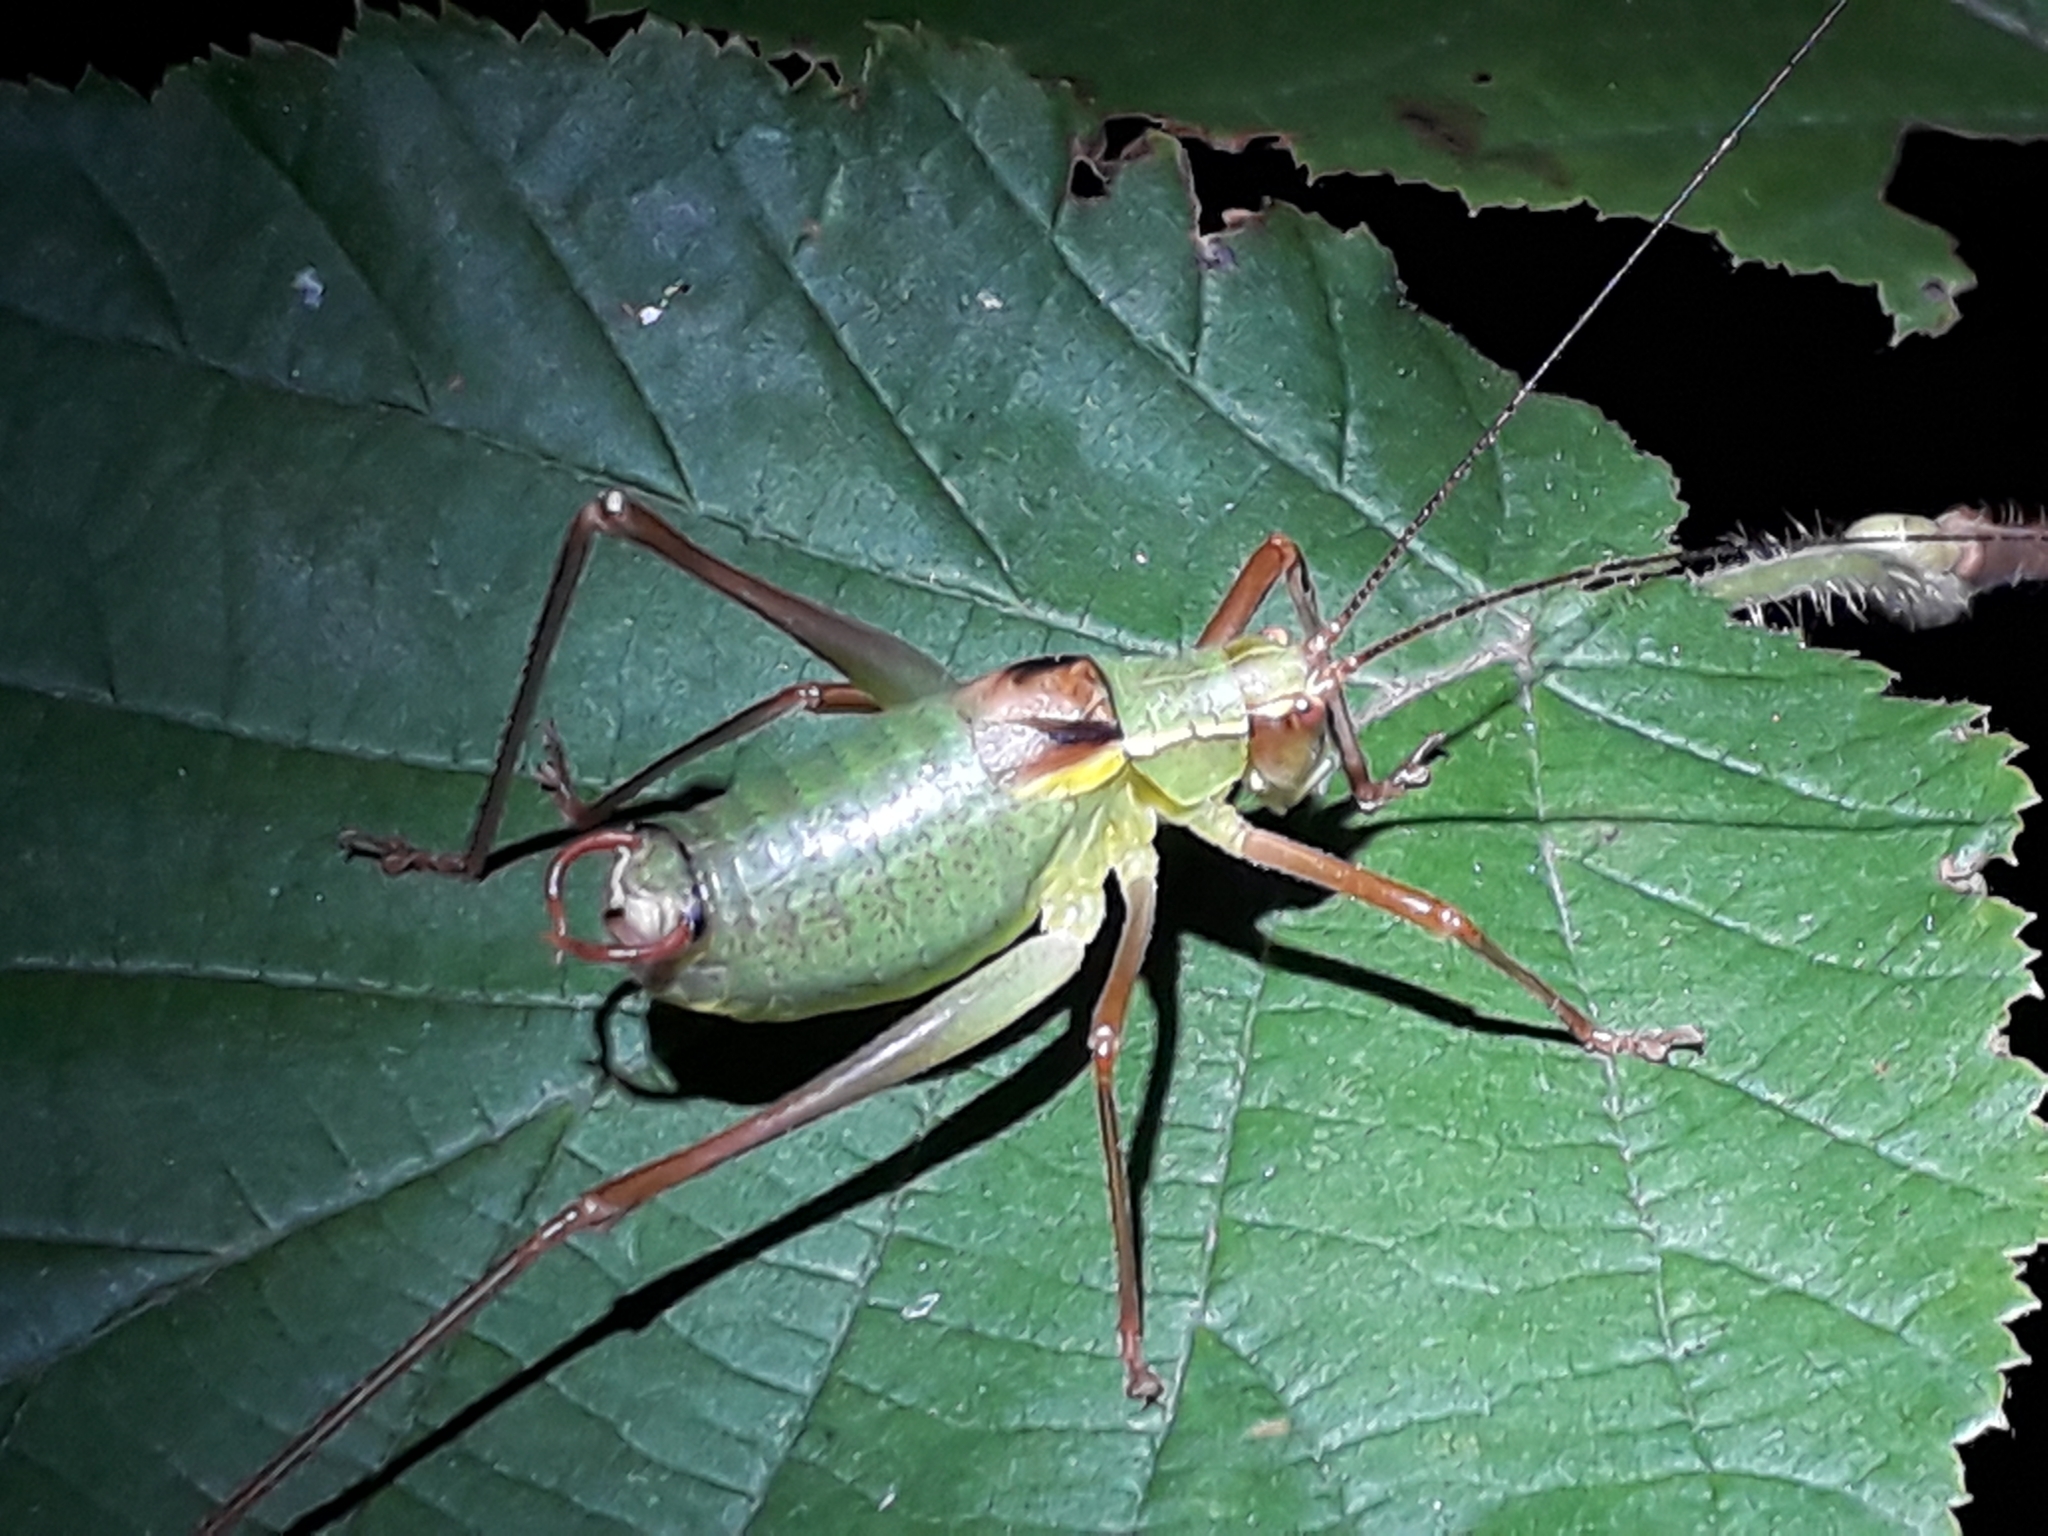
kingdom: Animalia
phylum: Arthropoda
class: Insecta
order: Orthoptera
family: Tettigoniidae
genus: Barbitistes
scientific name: Barbitistes serricauda
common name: Saw-tailed bush-cricket
